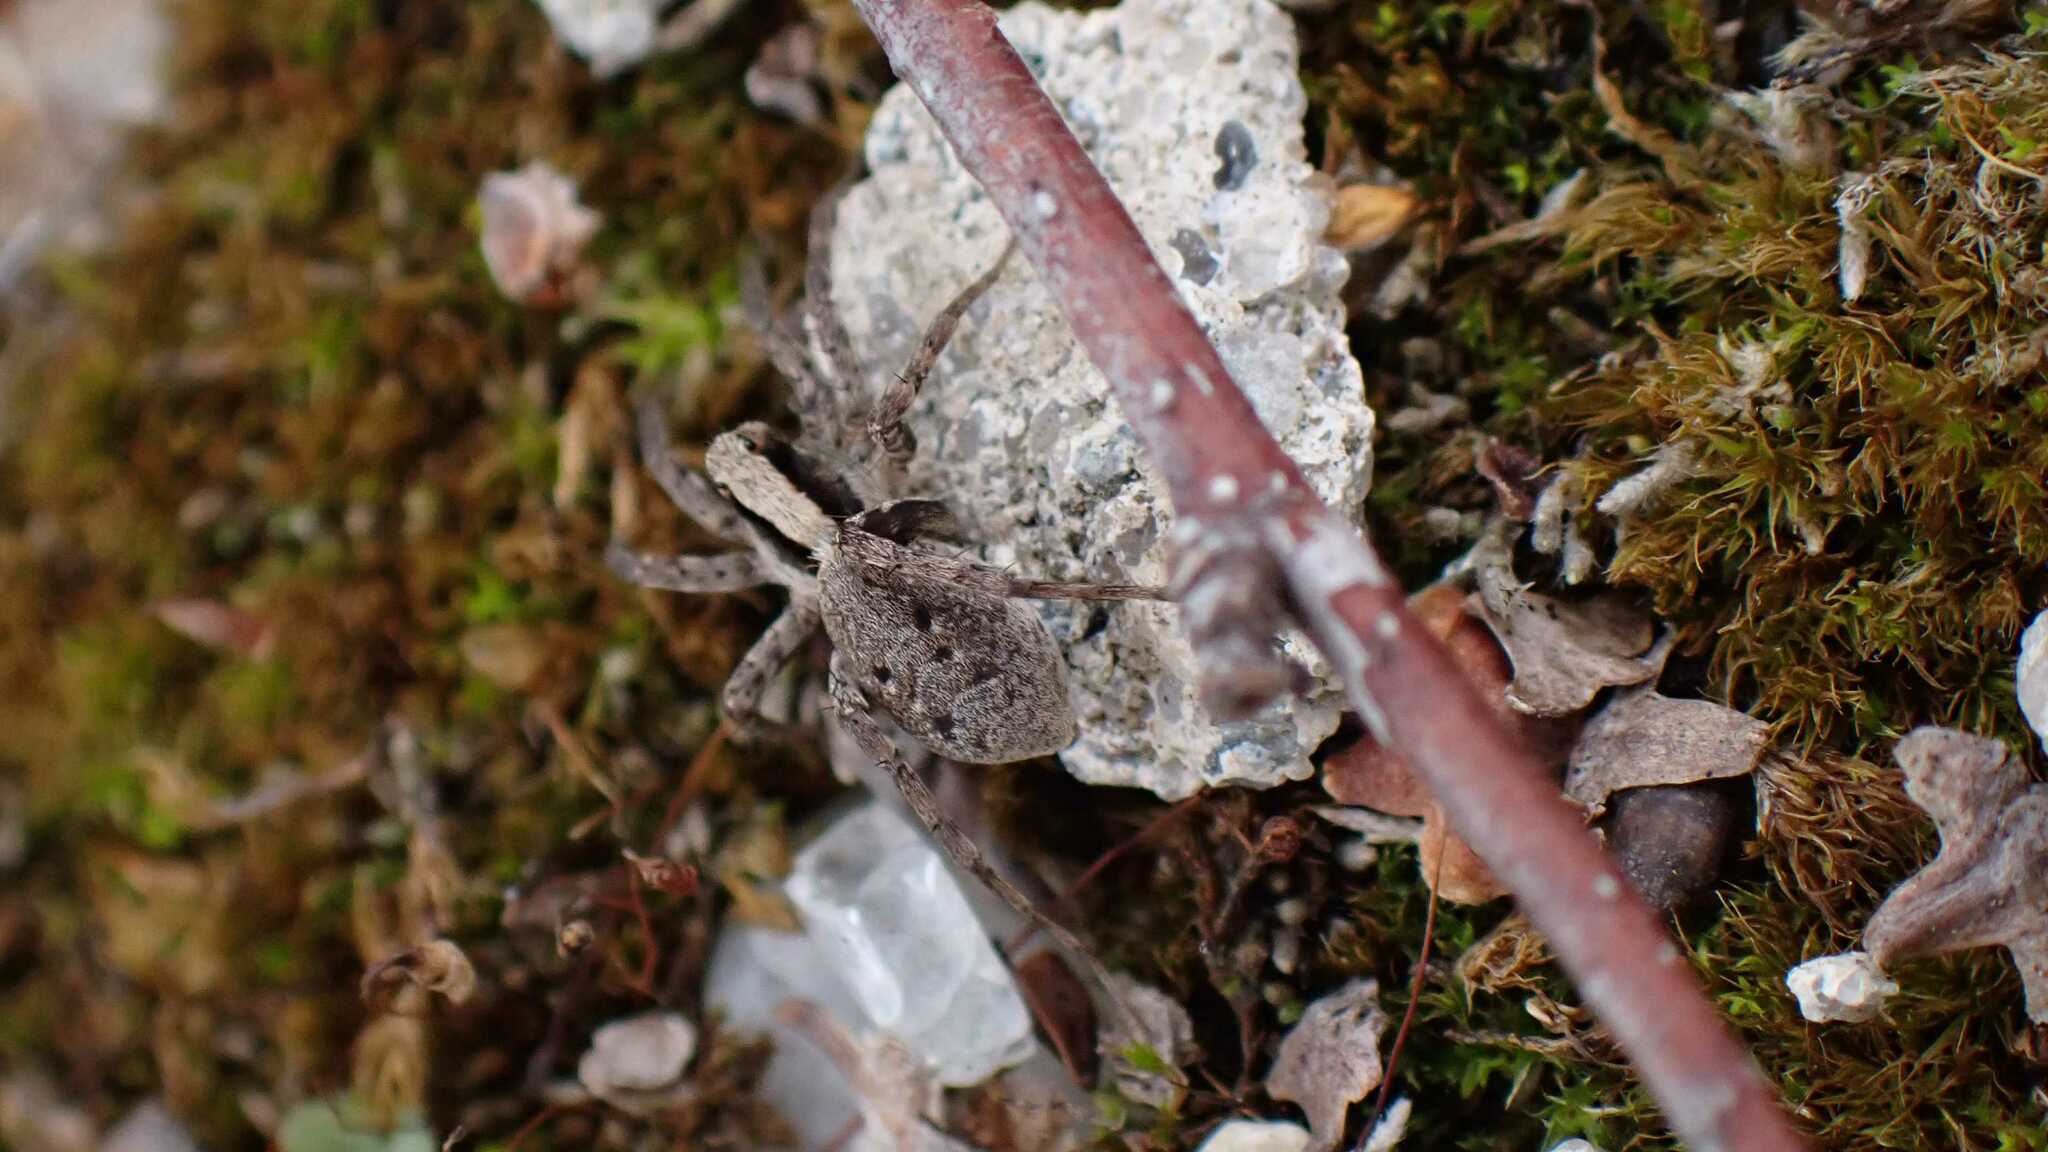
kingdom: Animalia
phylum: Arthropoda
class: Arachnida
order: Araneae
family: Lycosidae
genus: Xerolycosa
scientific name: Xerolycosa nemoralis
